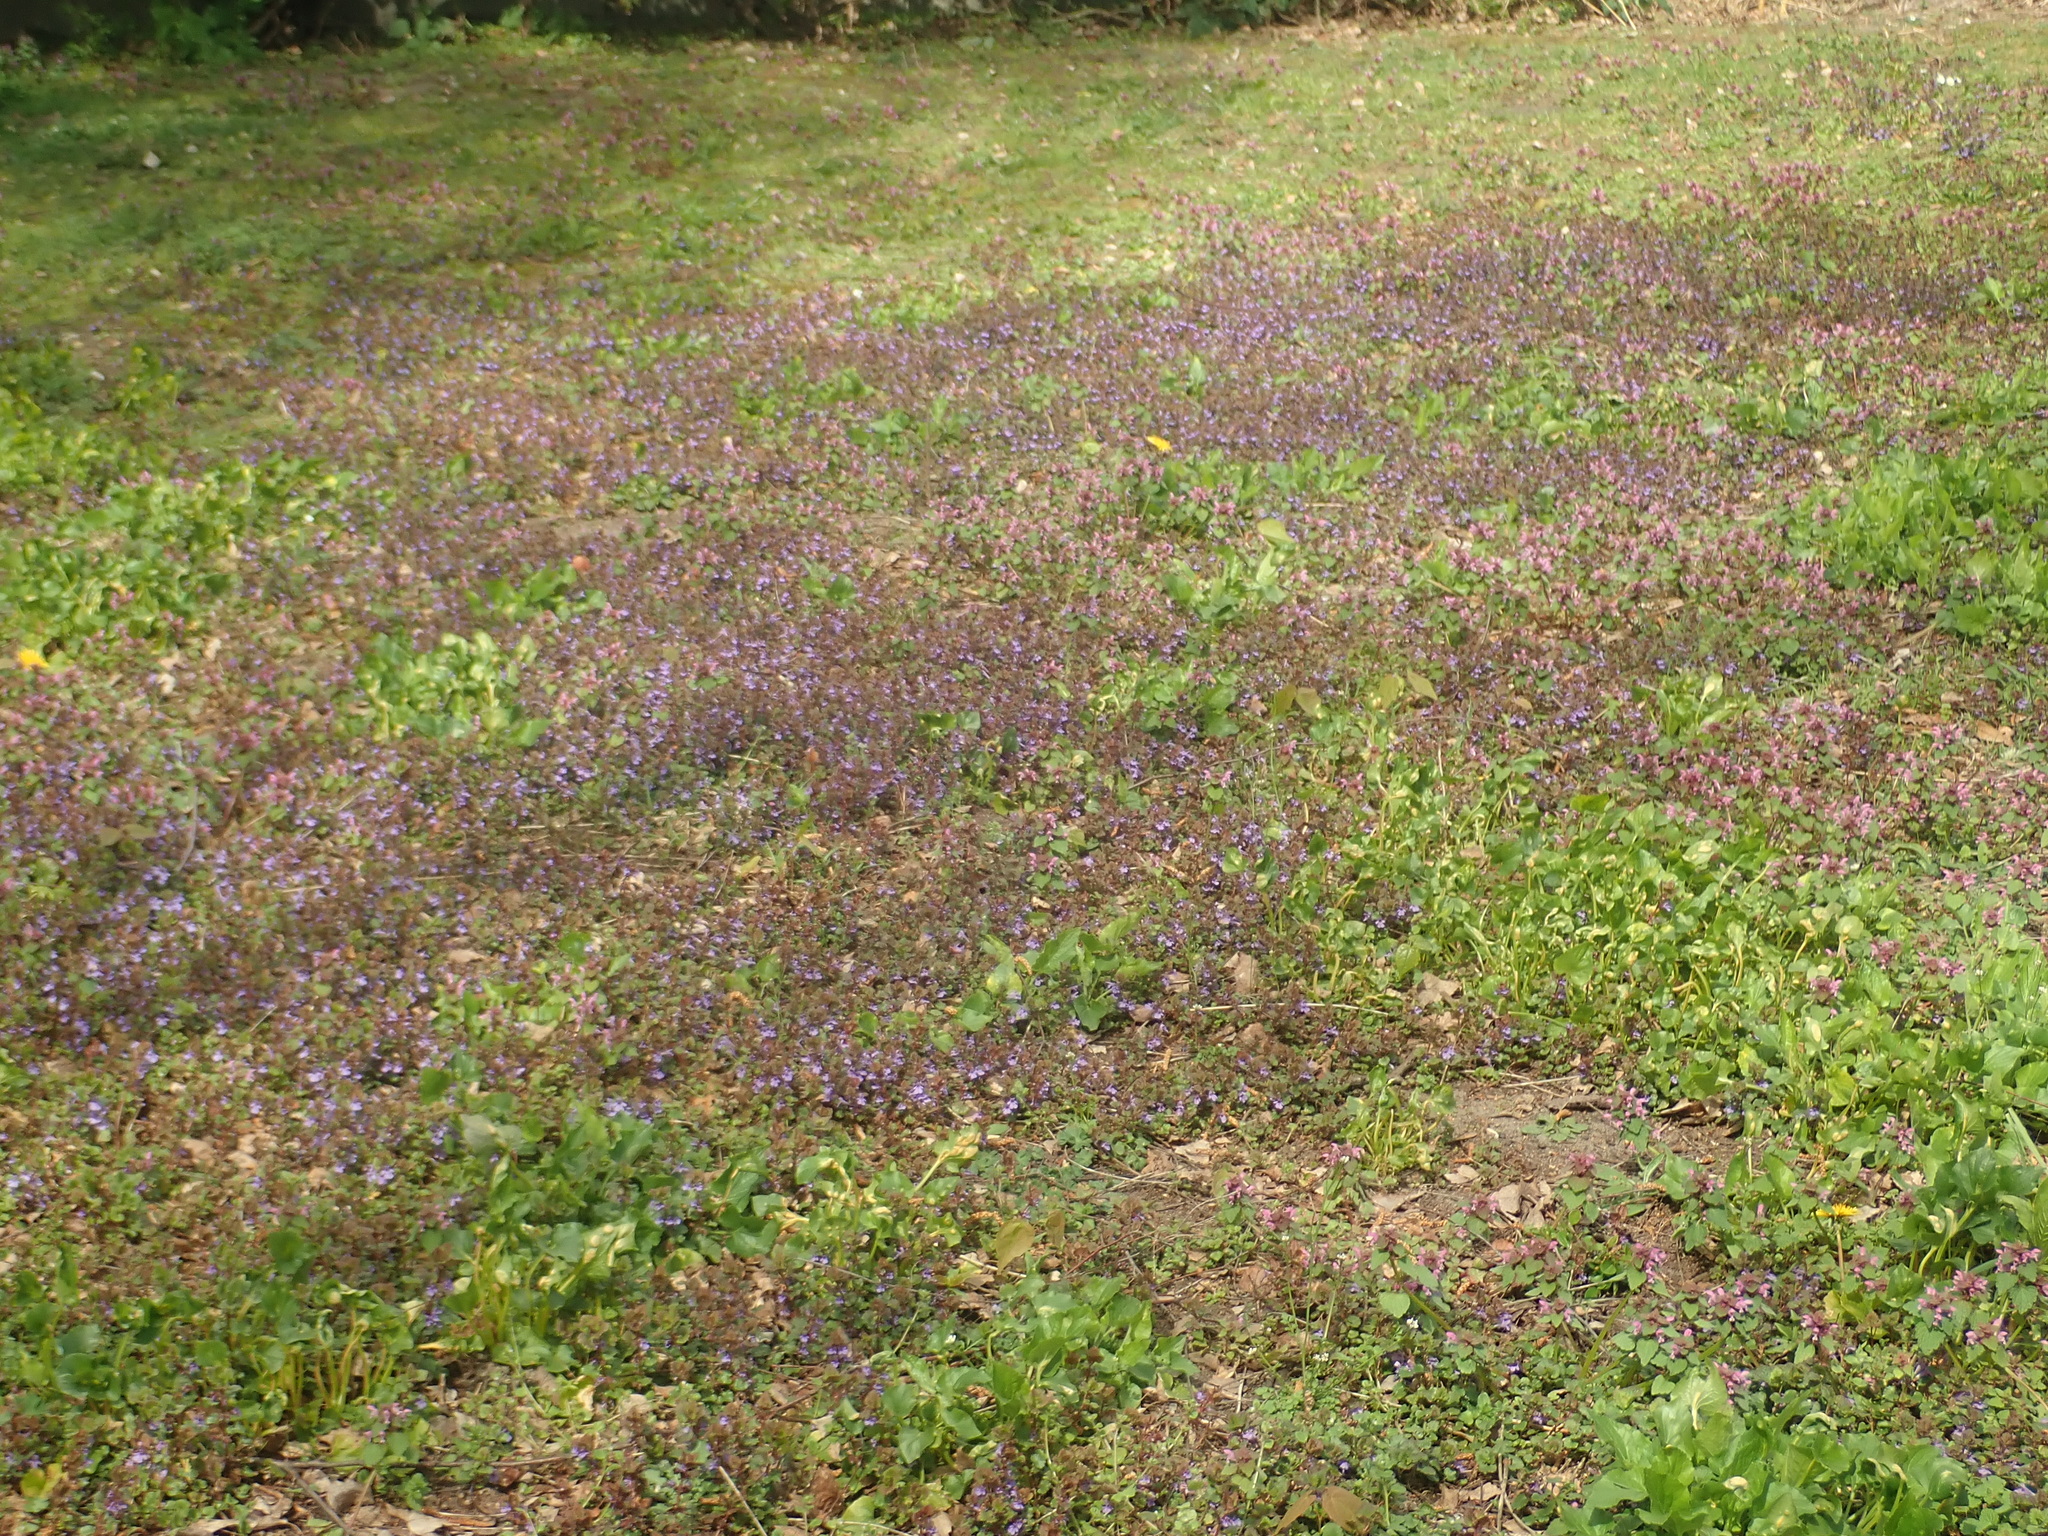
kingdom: Plantae
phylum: Tracheophyta
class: Magnoliopsida
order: Lamiales
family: Lamiaceae
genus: Glechoma
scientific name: Glechoma hederacea
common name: Ground ivy
